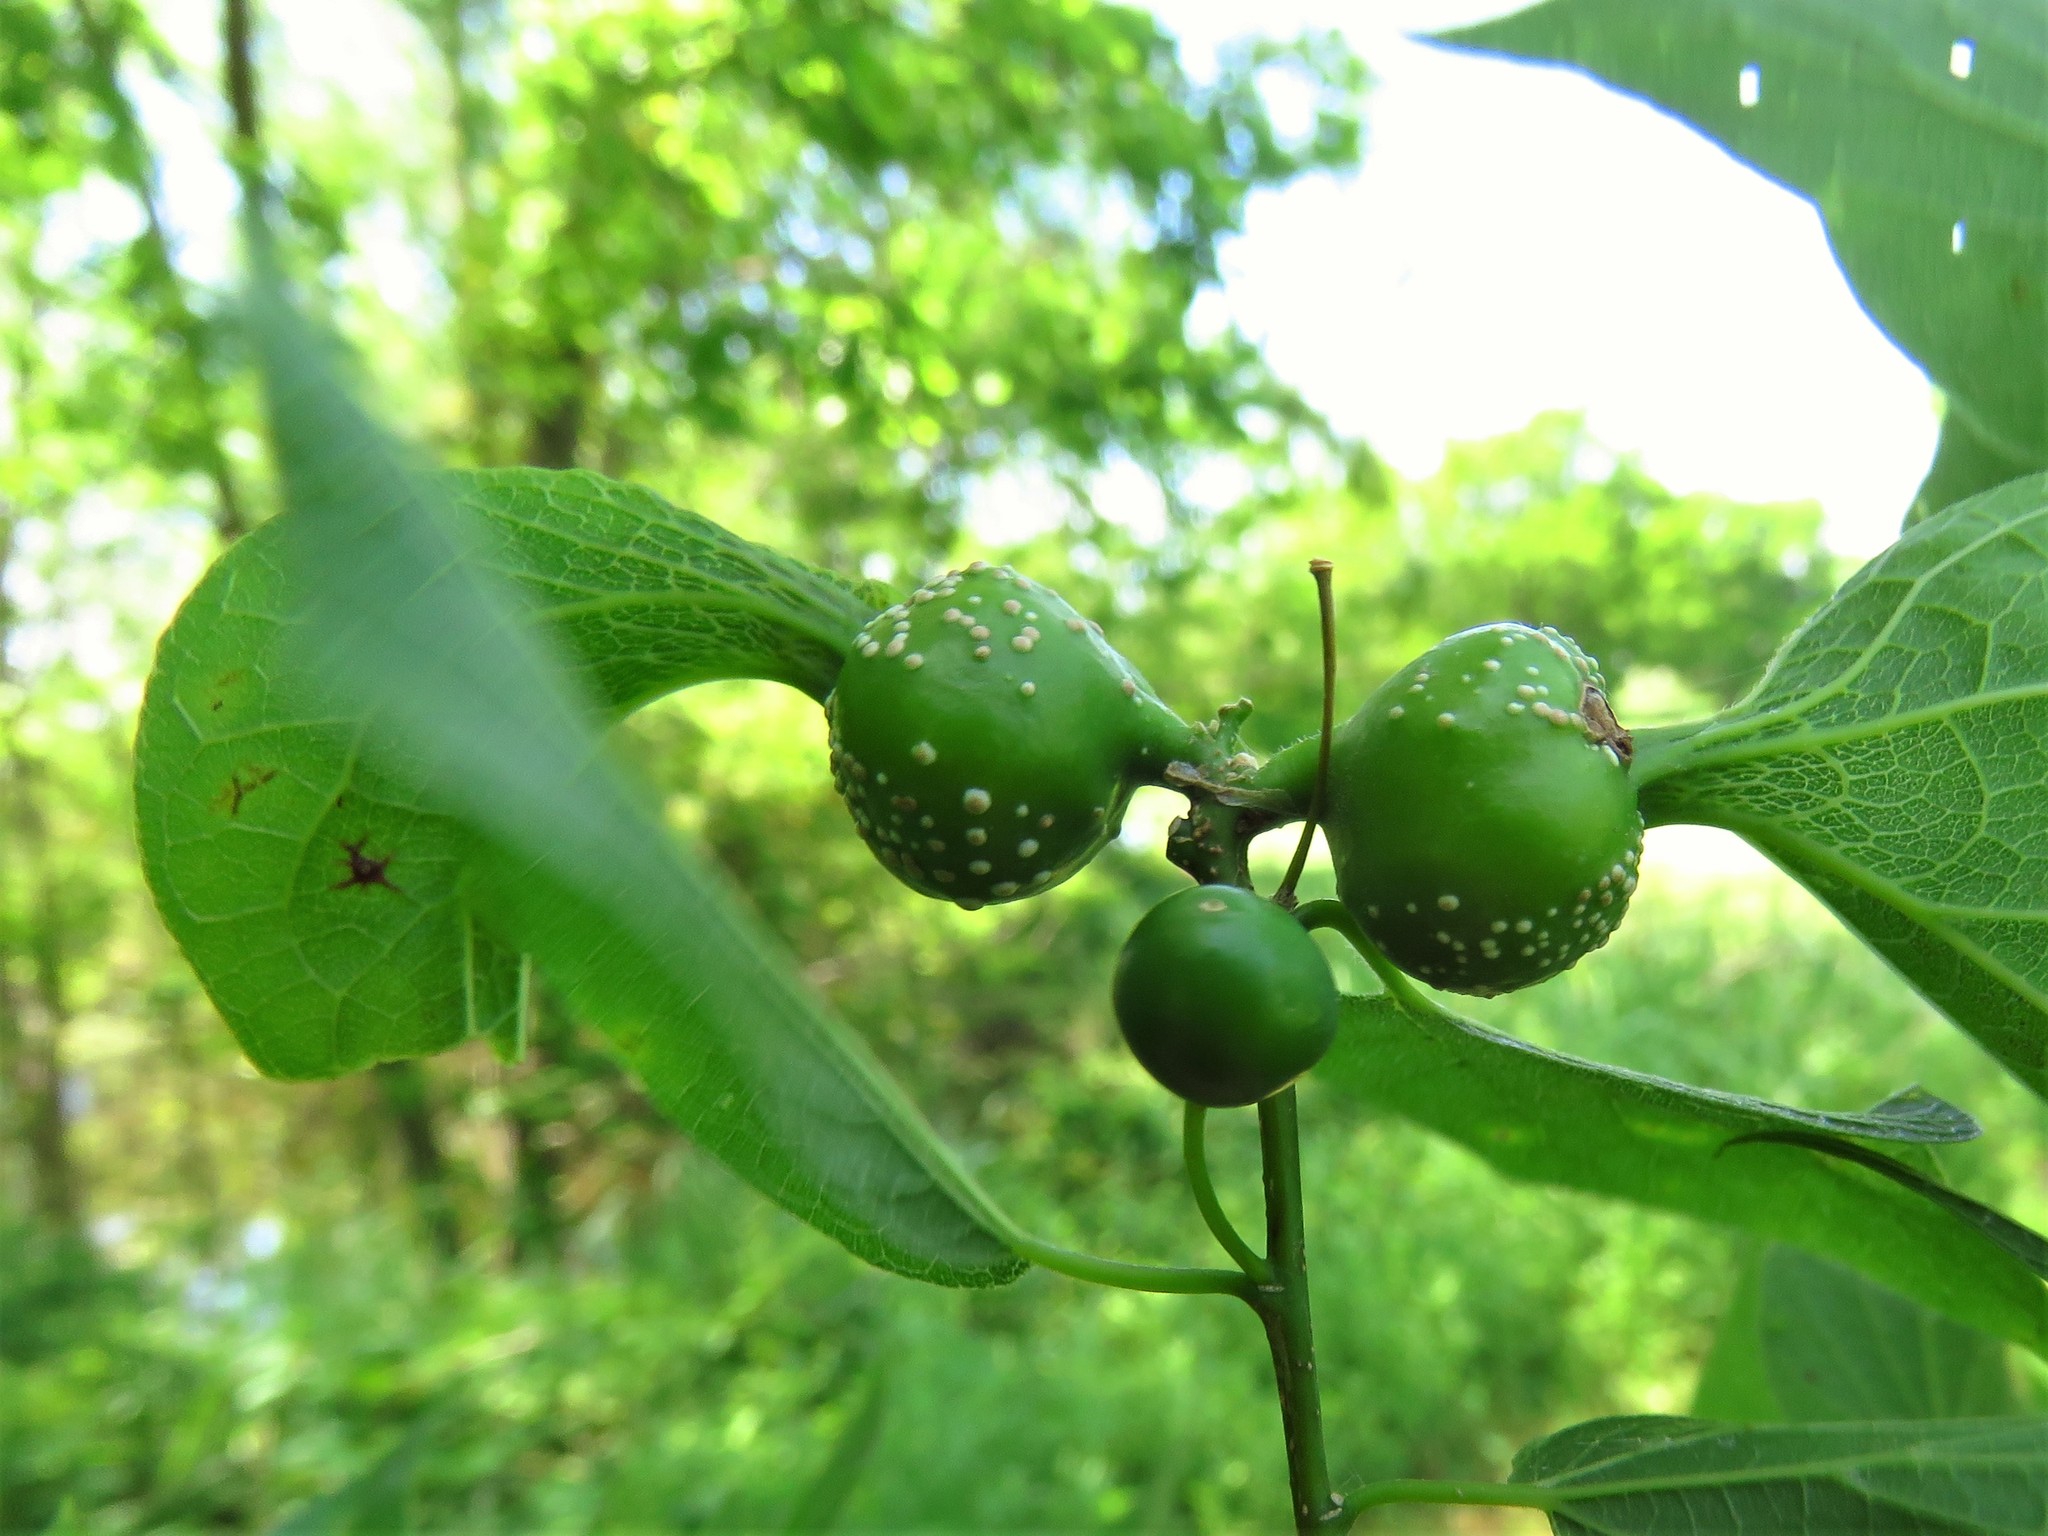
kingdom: Animalia
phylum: Arthropoda
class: Insecta
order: Hemiptera
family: Aphalaridae
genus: Pachypsylla
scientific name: Pachypsylla venusta
